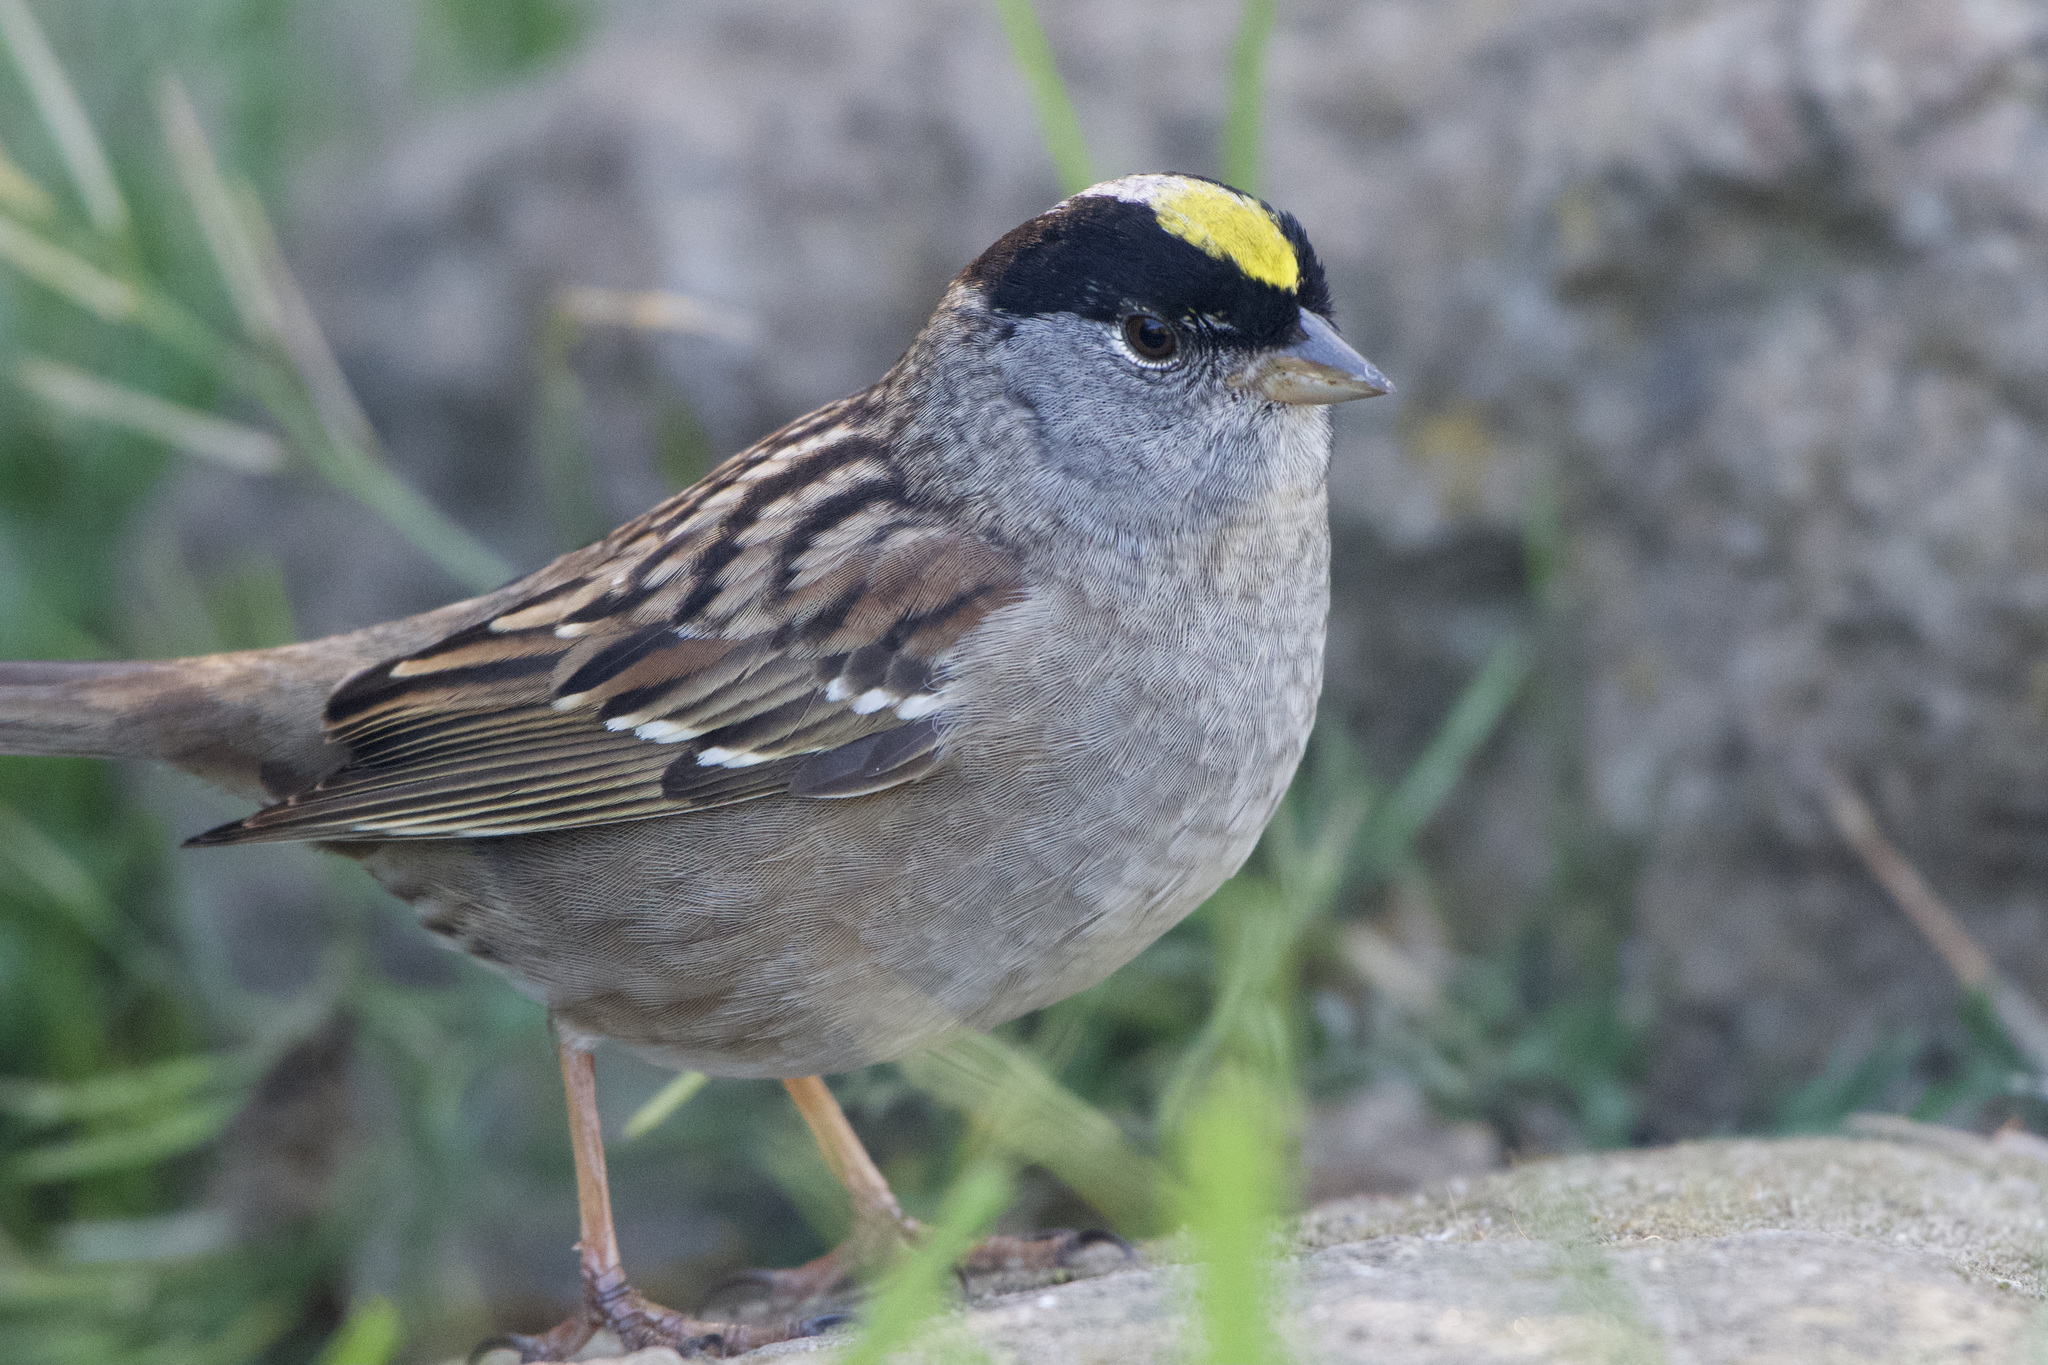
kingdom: Animalia
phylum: Chordata
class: Aves
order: Passeriformes
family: Passerellidae
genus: Zonotrichia
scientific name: Zonotrichia atricapilla
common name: Golden-crowned sparrow
